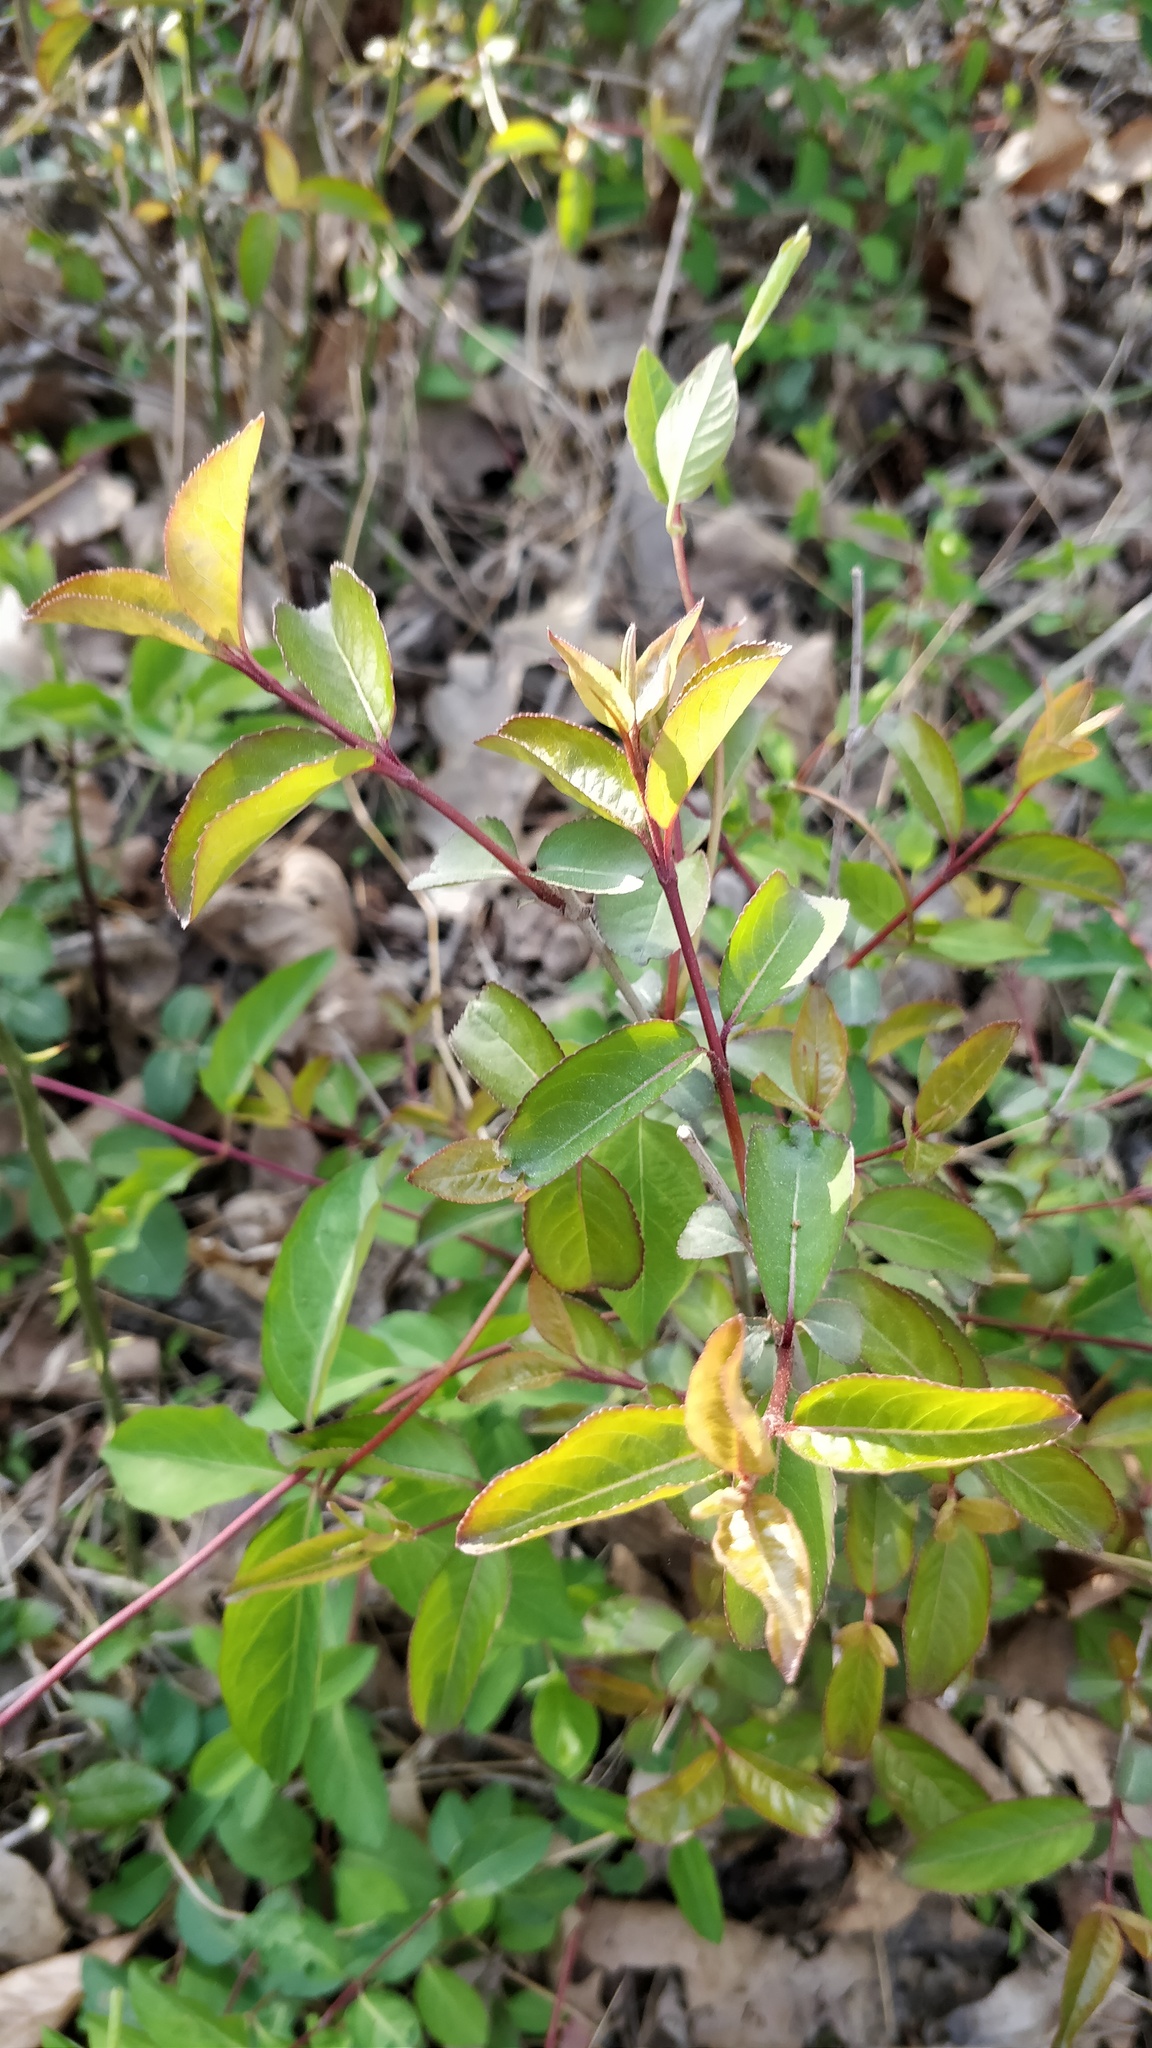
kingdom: Plantae
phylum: Tracheophyta
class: Magnoliopsida
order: Dipsacales
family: Viburnaceae
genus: Viburnum
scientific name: Viburnum prunifolium
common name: Black haw
